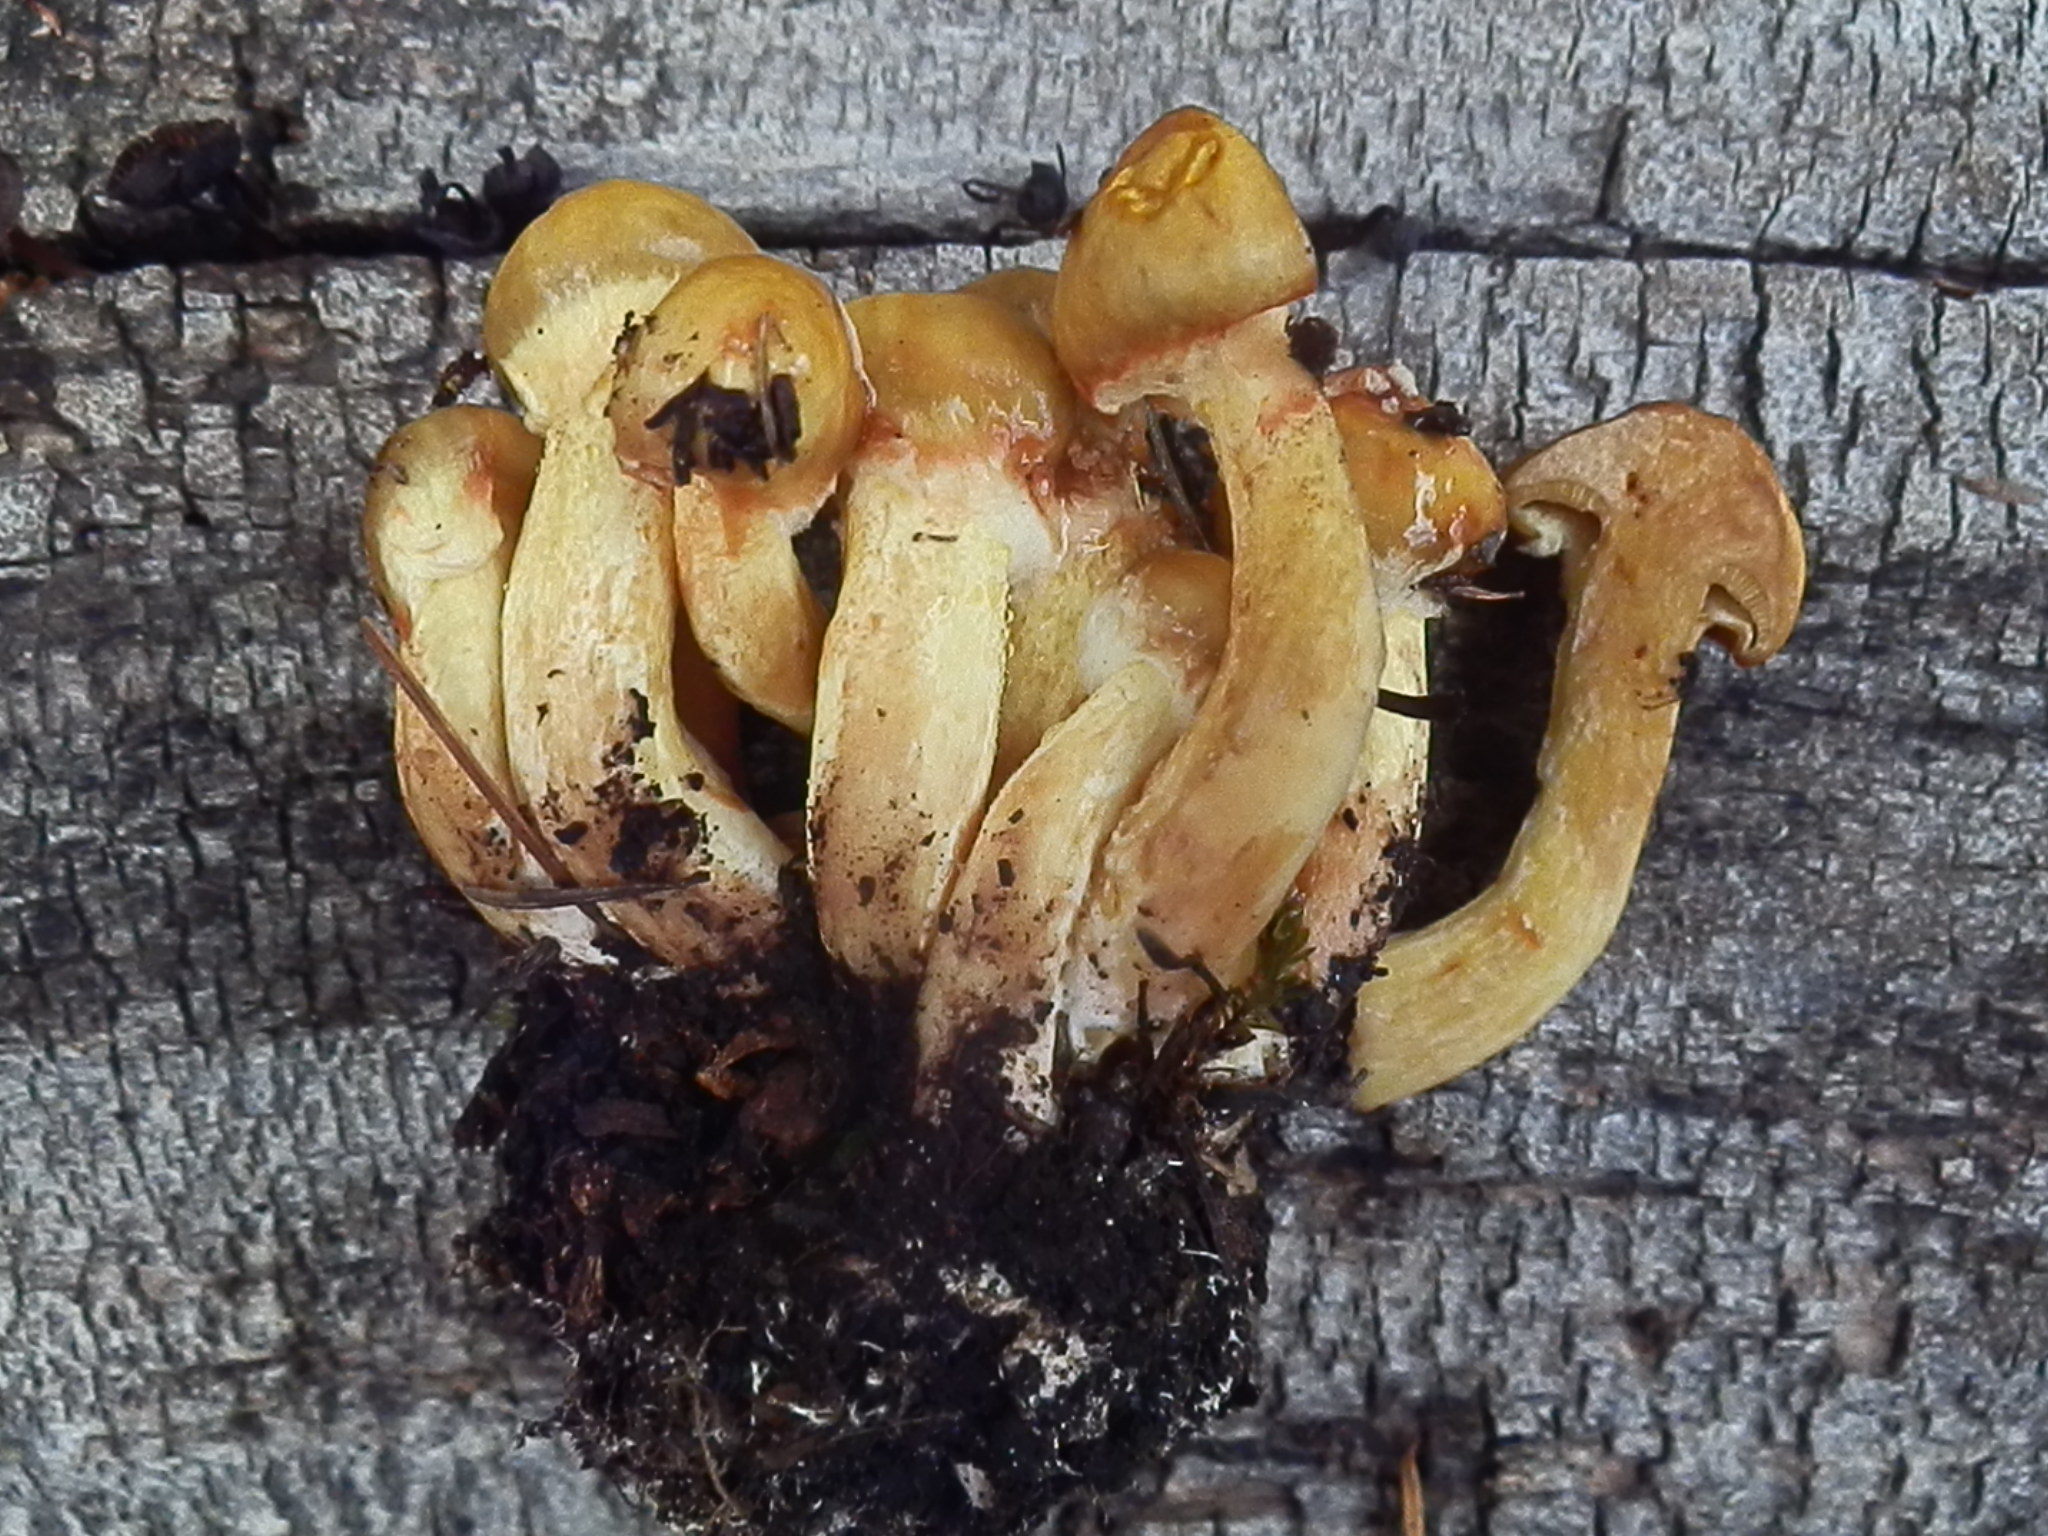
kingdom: Fungi
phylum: Basidiomycota
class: Agaricomycetes
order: Boletales
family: Suillaceae
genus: Suillus
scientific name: Suillus americanus
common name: Chicken fat mushroom
